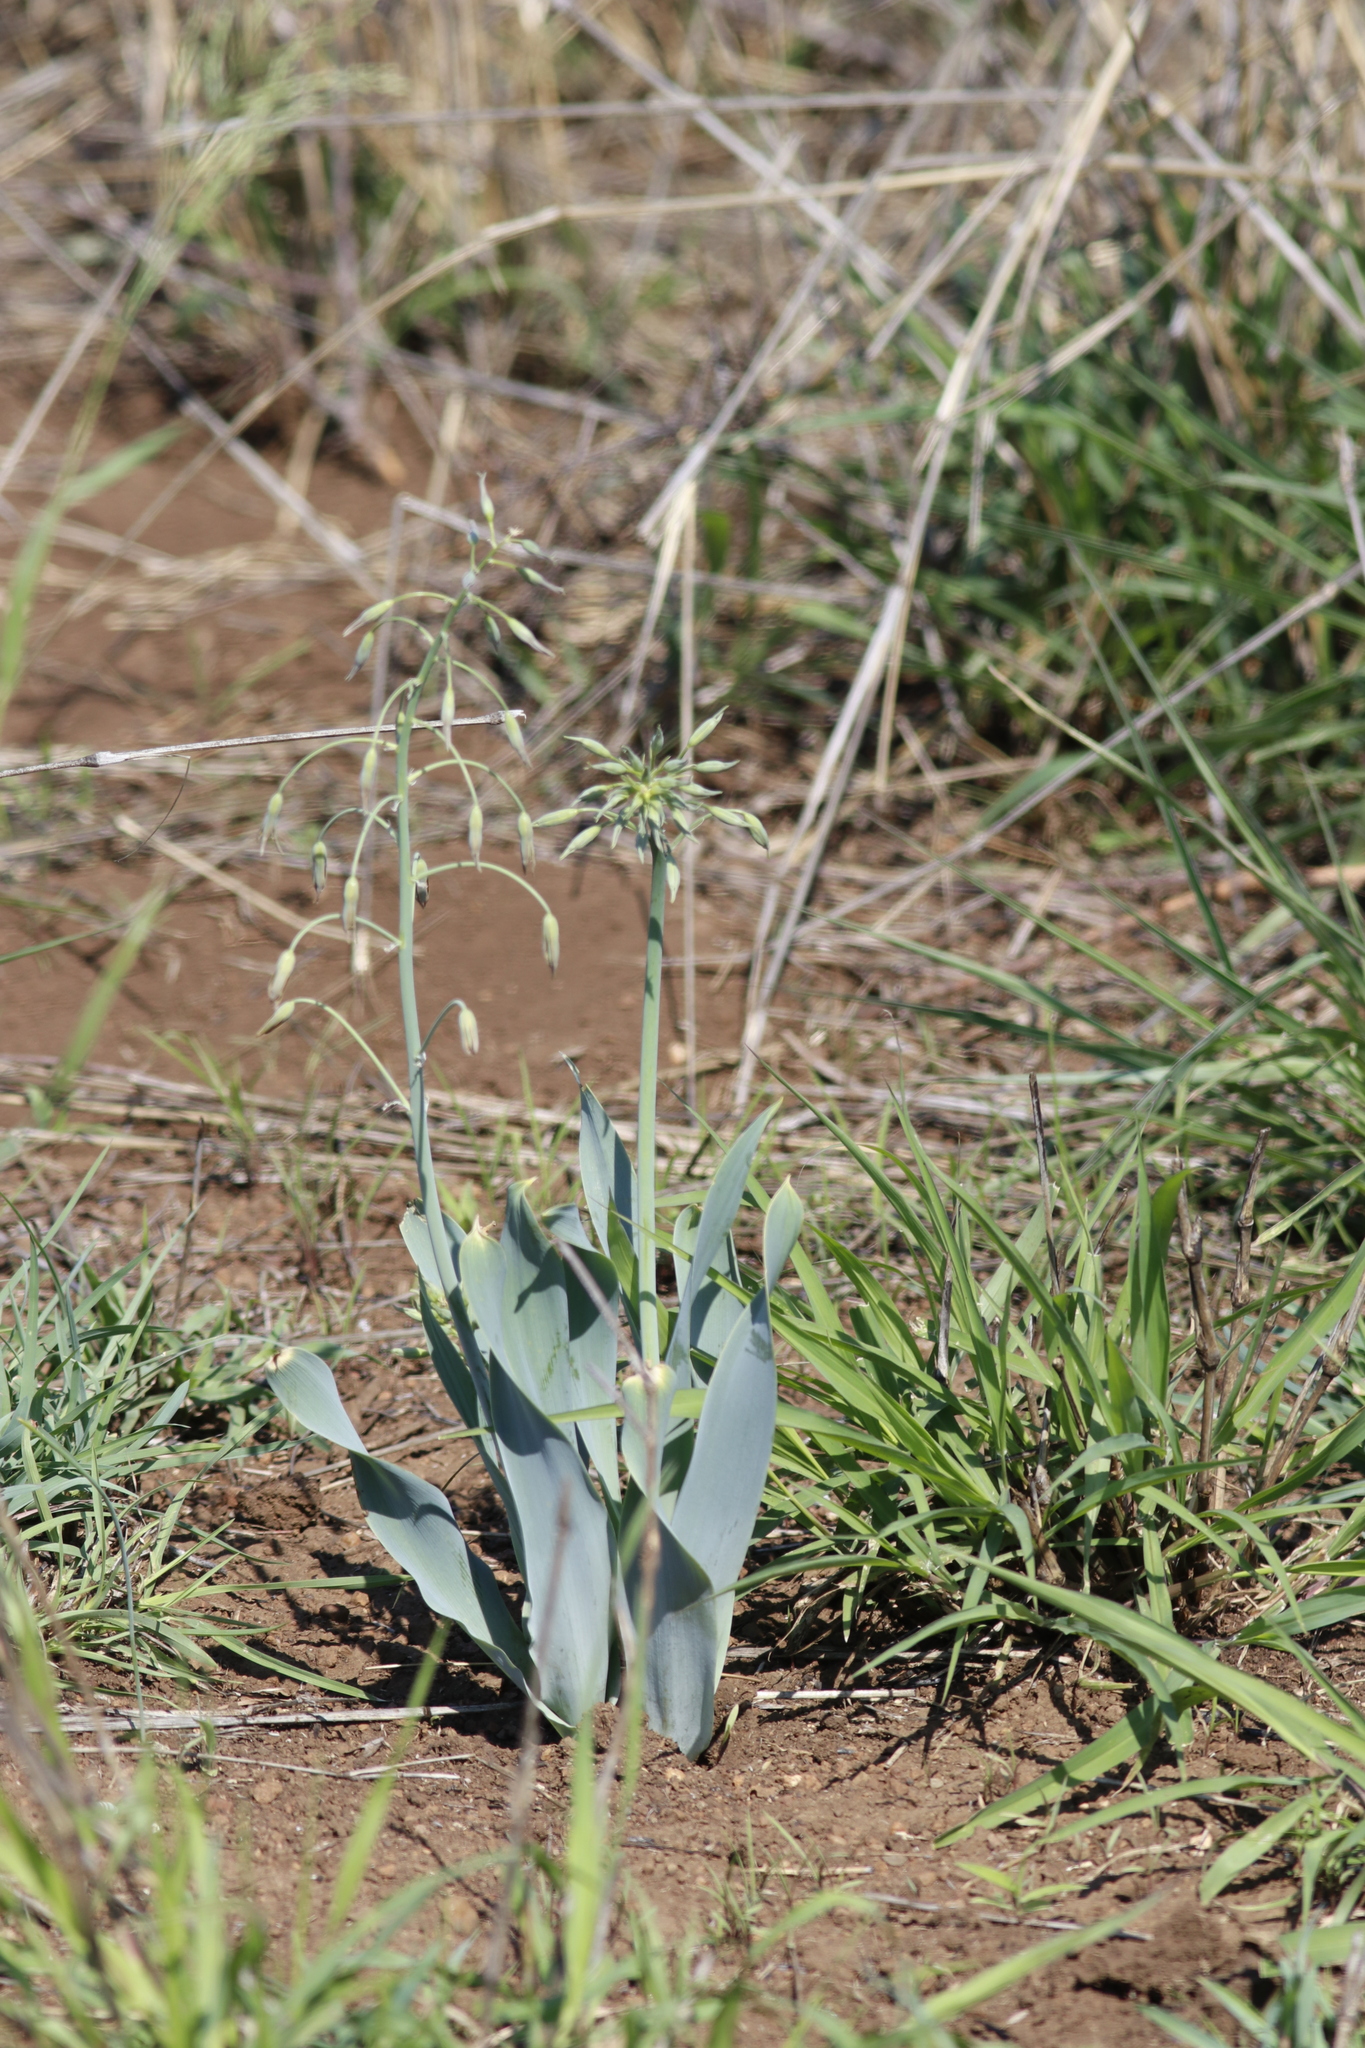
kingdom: Plantae
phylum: Tracheophyta
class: Liliopsida
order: Asparagales
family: Asparagaceae
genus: Dipcadi
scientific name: Dipcadi glaucum
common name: Wild onion
